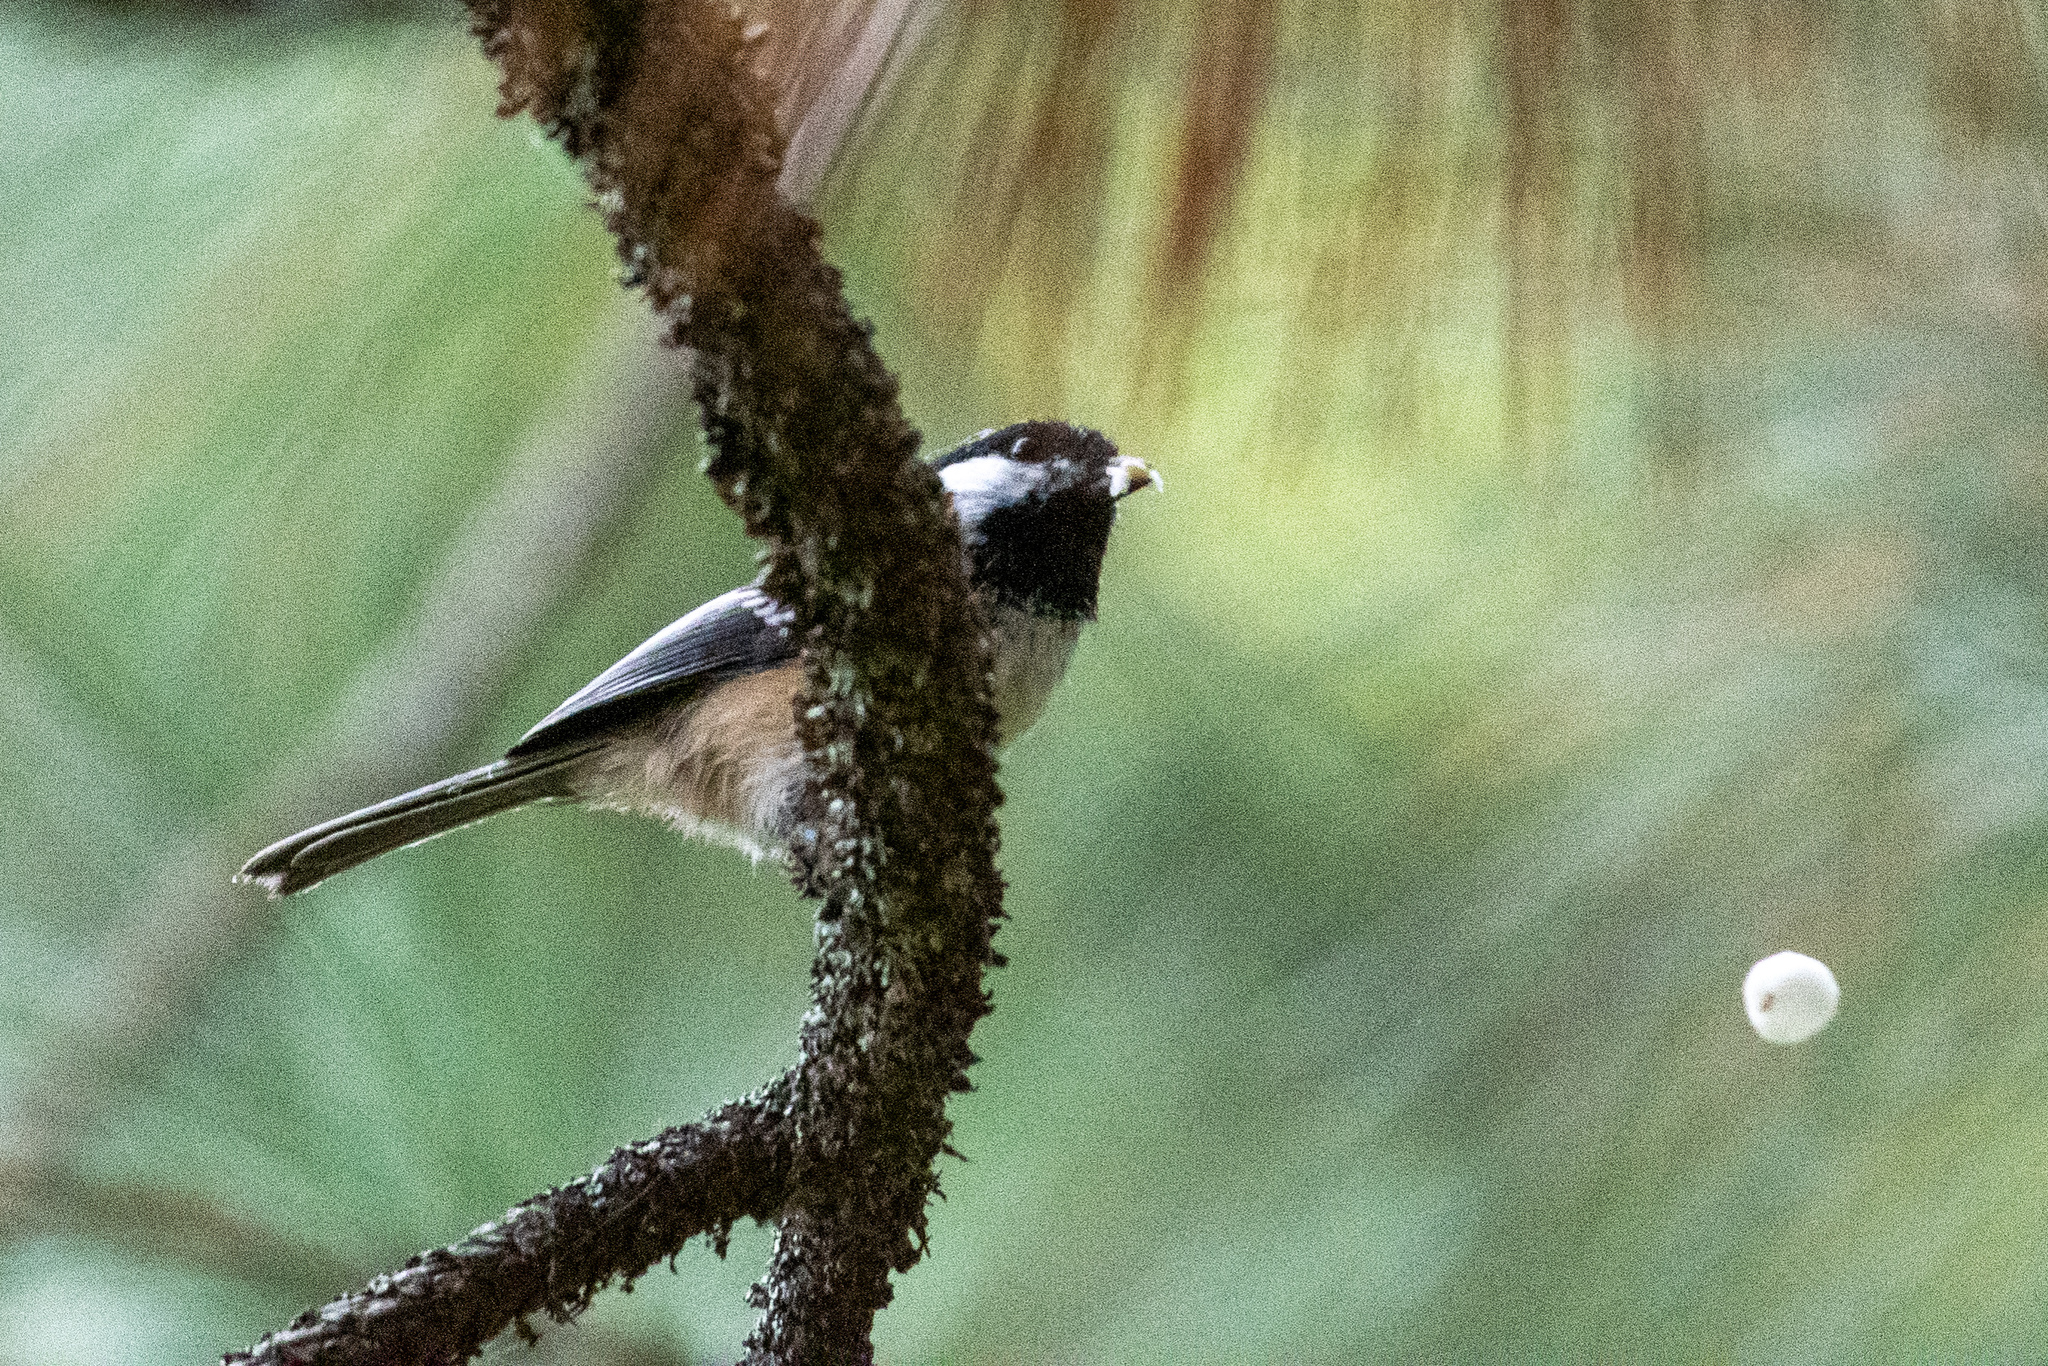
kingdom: Animalia
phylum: Chordata
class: Aves
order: Passeriformes
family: Paridae
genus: Poecile
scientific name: Poecile atricapillus
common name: Black-capped chickadee
